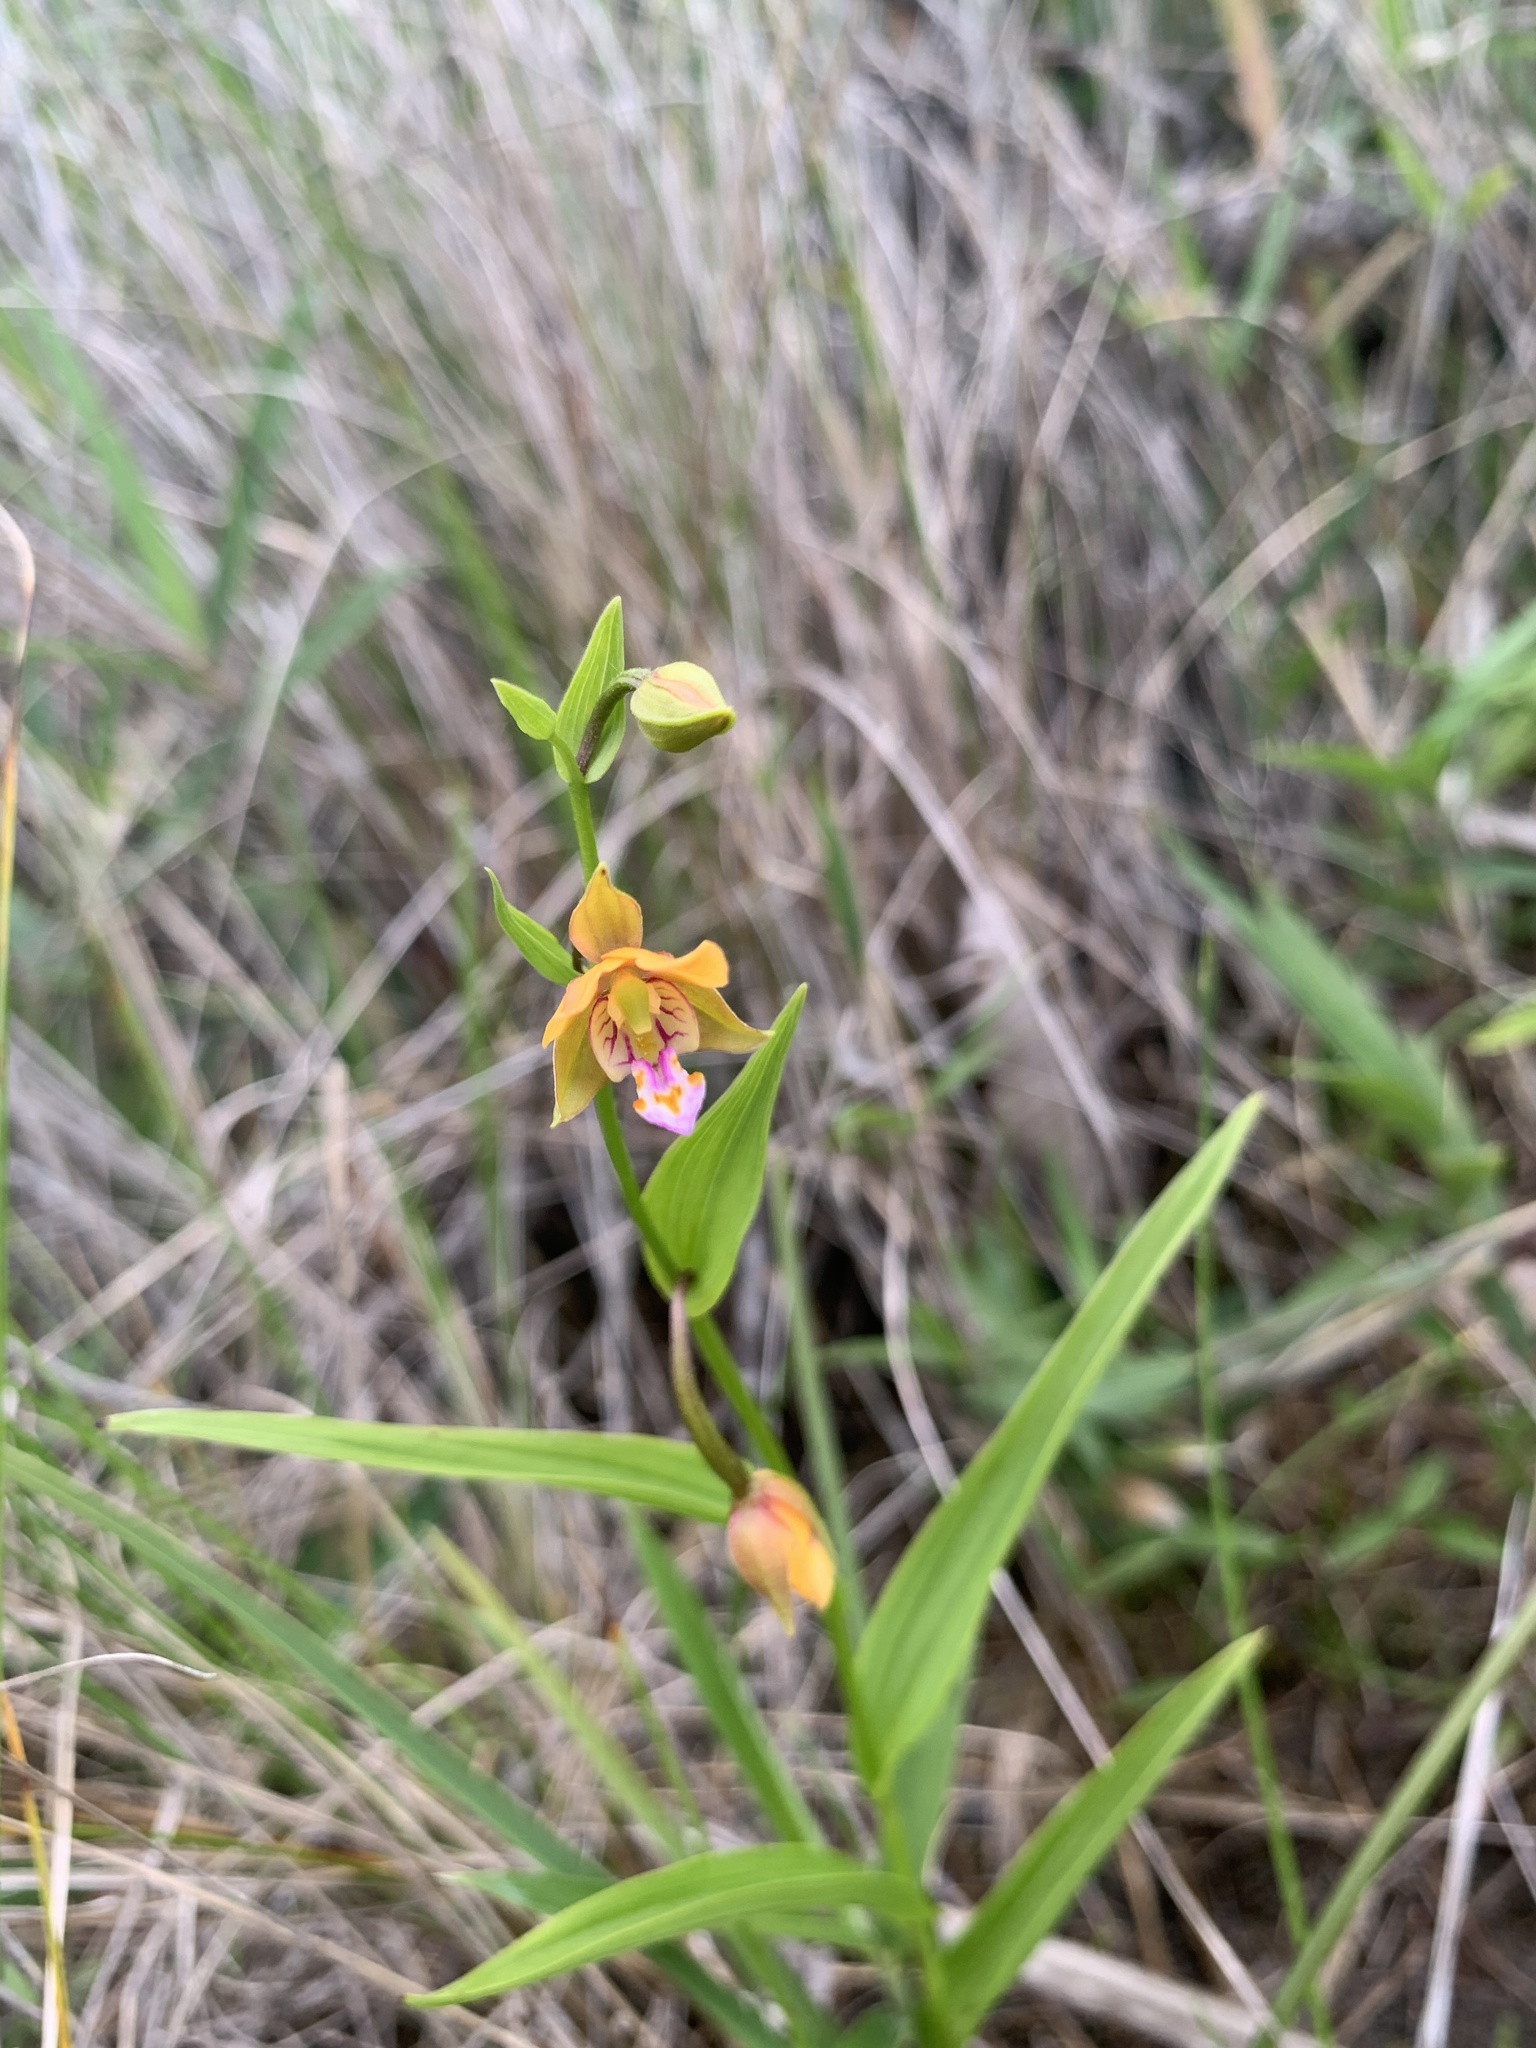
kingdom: Plantae
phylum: Tracheophyta
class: Liliopsida
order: Asparagales
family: Orchidaceae
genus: Epipactis
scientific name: Epipactis thunbergii
